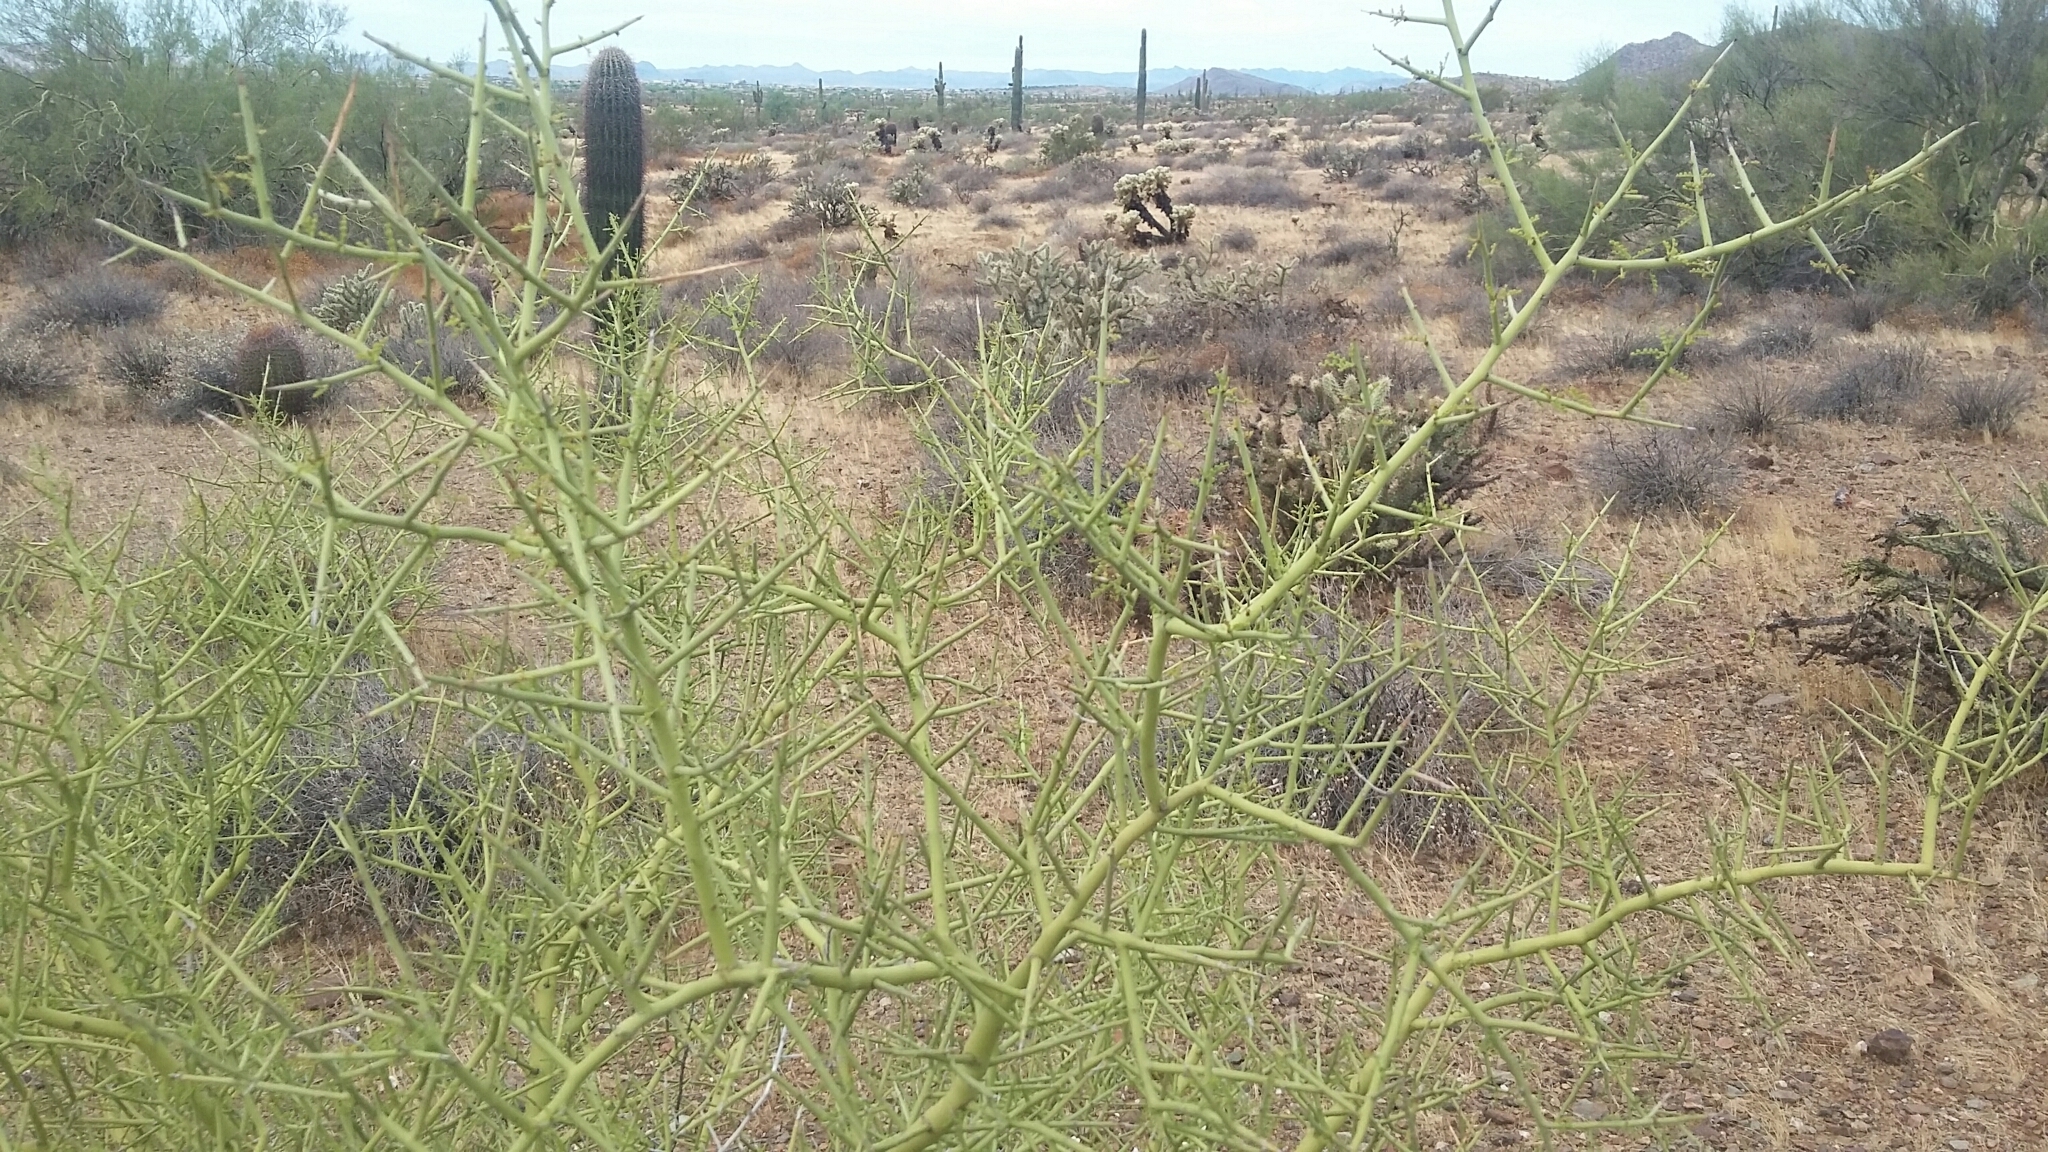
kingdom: Plantae
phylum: Tracheophyta
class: Magnoliopsida
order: Fabales
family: Fabaceae
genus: Parkinsonia
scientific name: Parkinsonia microphylla
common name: Yellow paloverde
